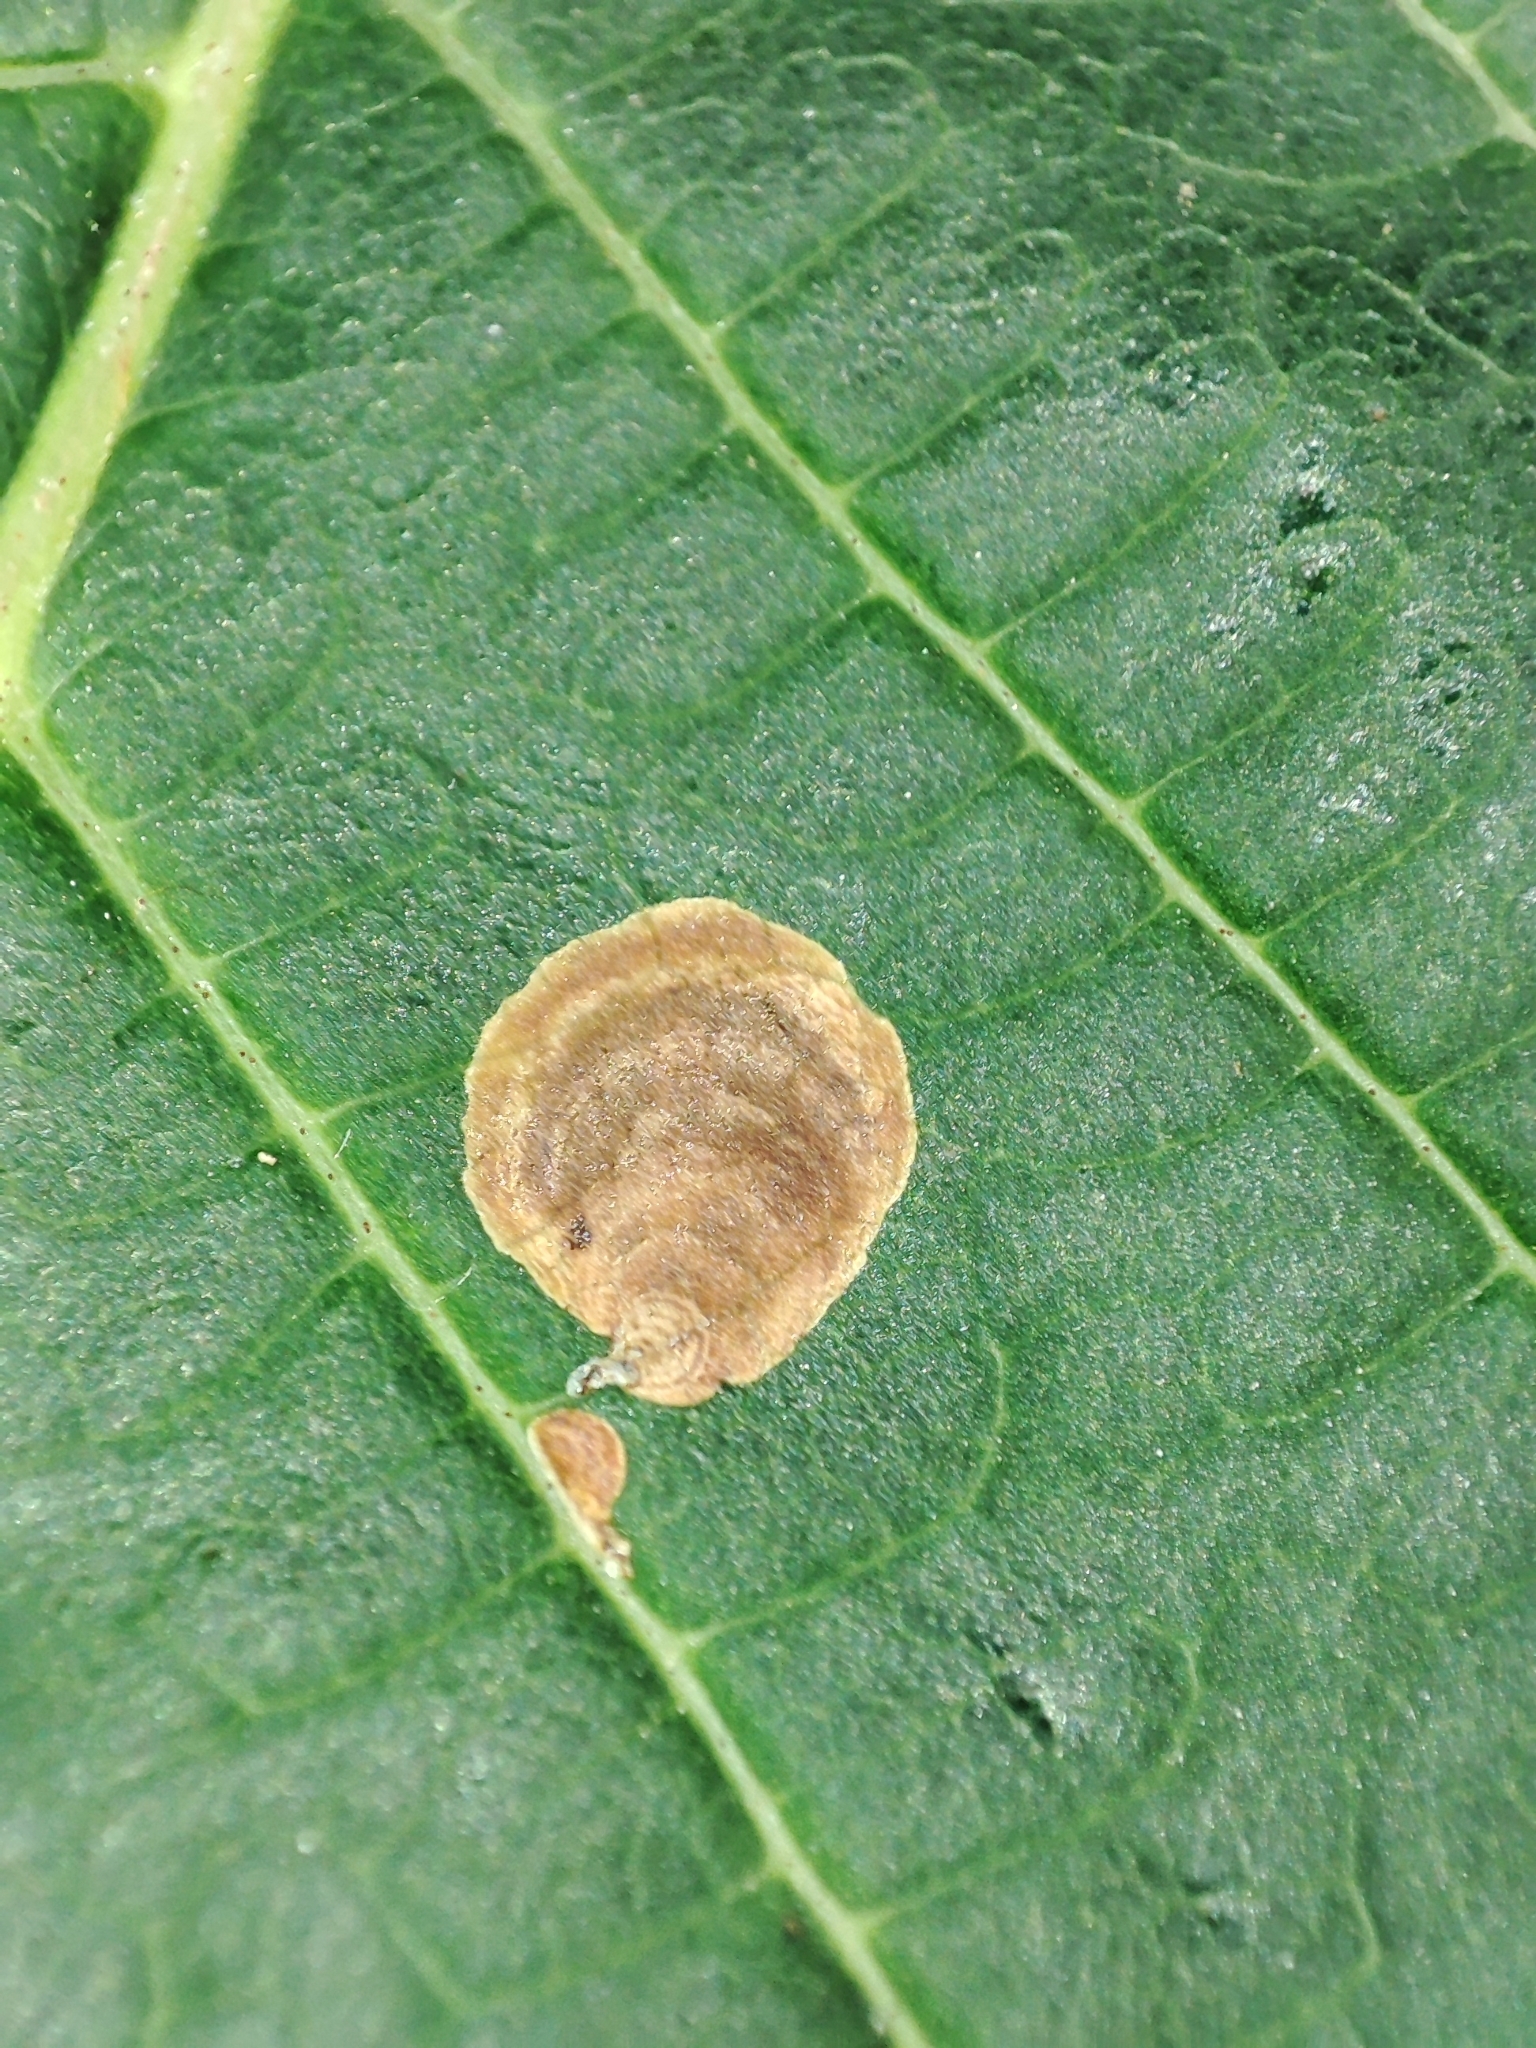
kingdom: Animalia
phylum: Arthropoda
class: Insecta
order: Lepidoptera
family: Gracillariidae
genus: Cameraria
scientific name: Cameraria ohridella
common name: Horse-chestnut leaf-miner
